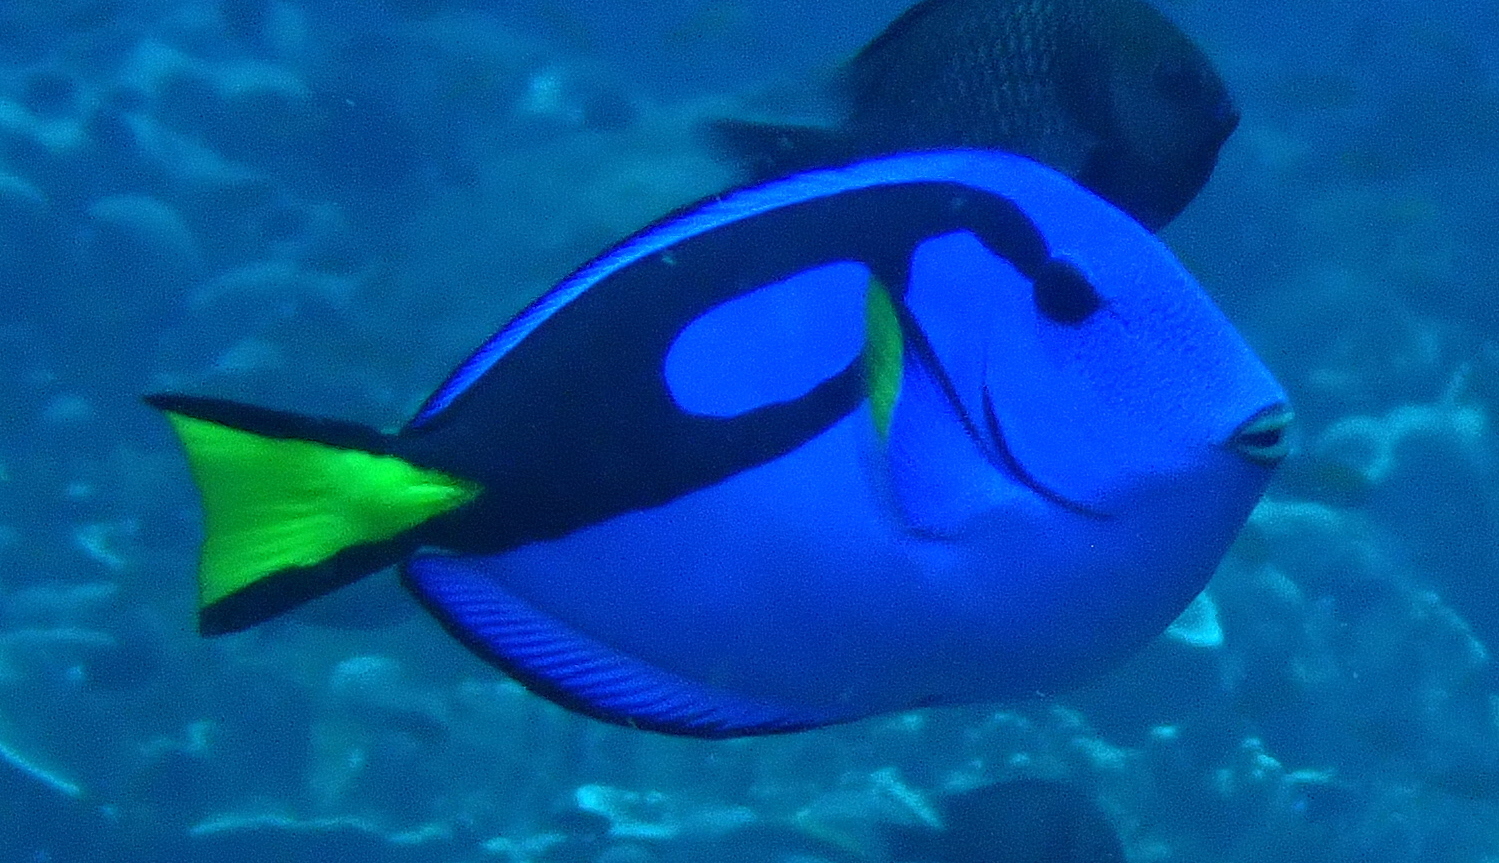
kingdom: Animalia
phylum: Chordata
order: Perciformes
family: Acanthuridae
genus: Paracanthurus
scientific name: Paracanthurus hepatus
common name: Palette surgeonfish
